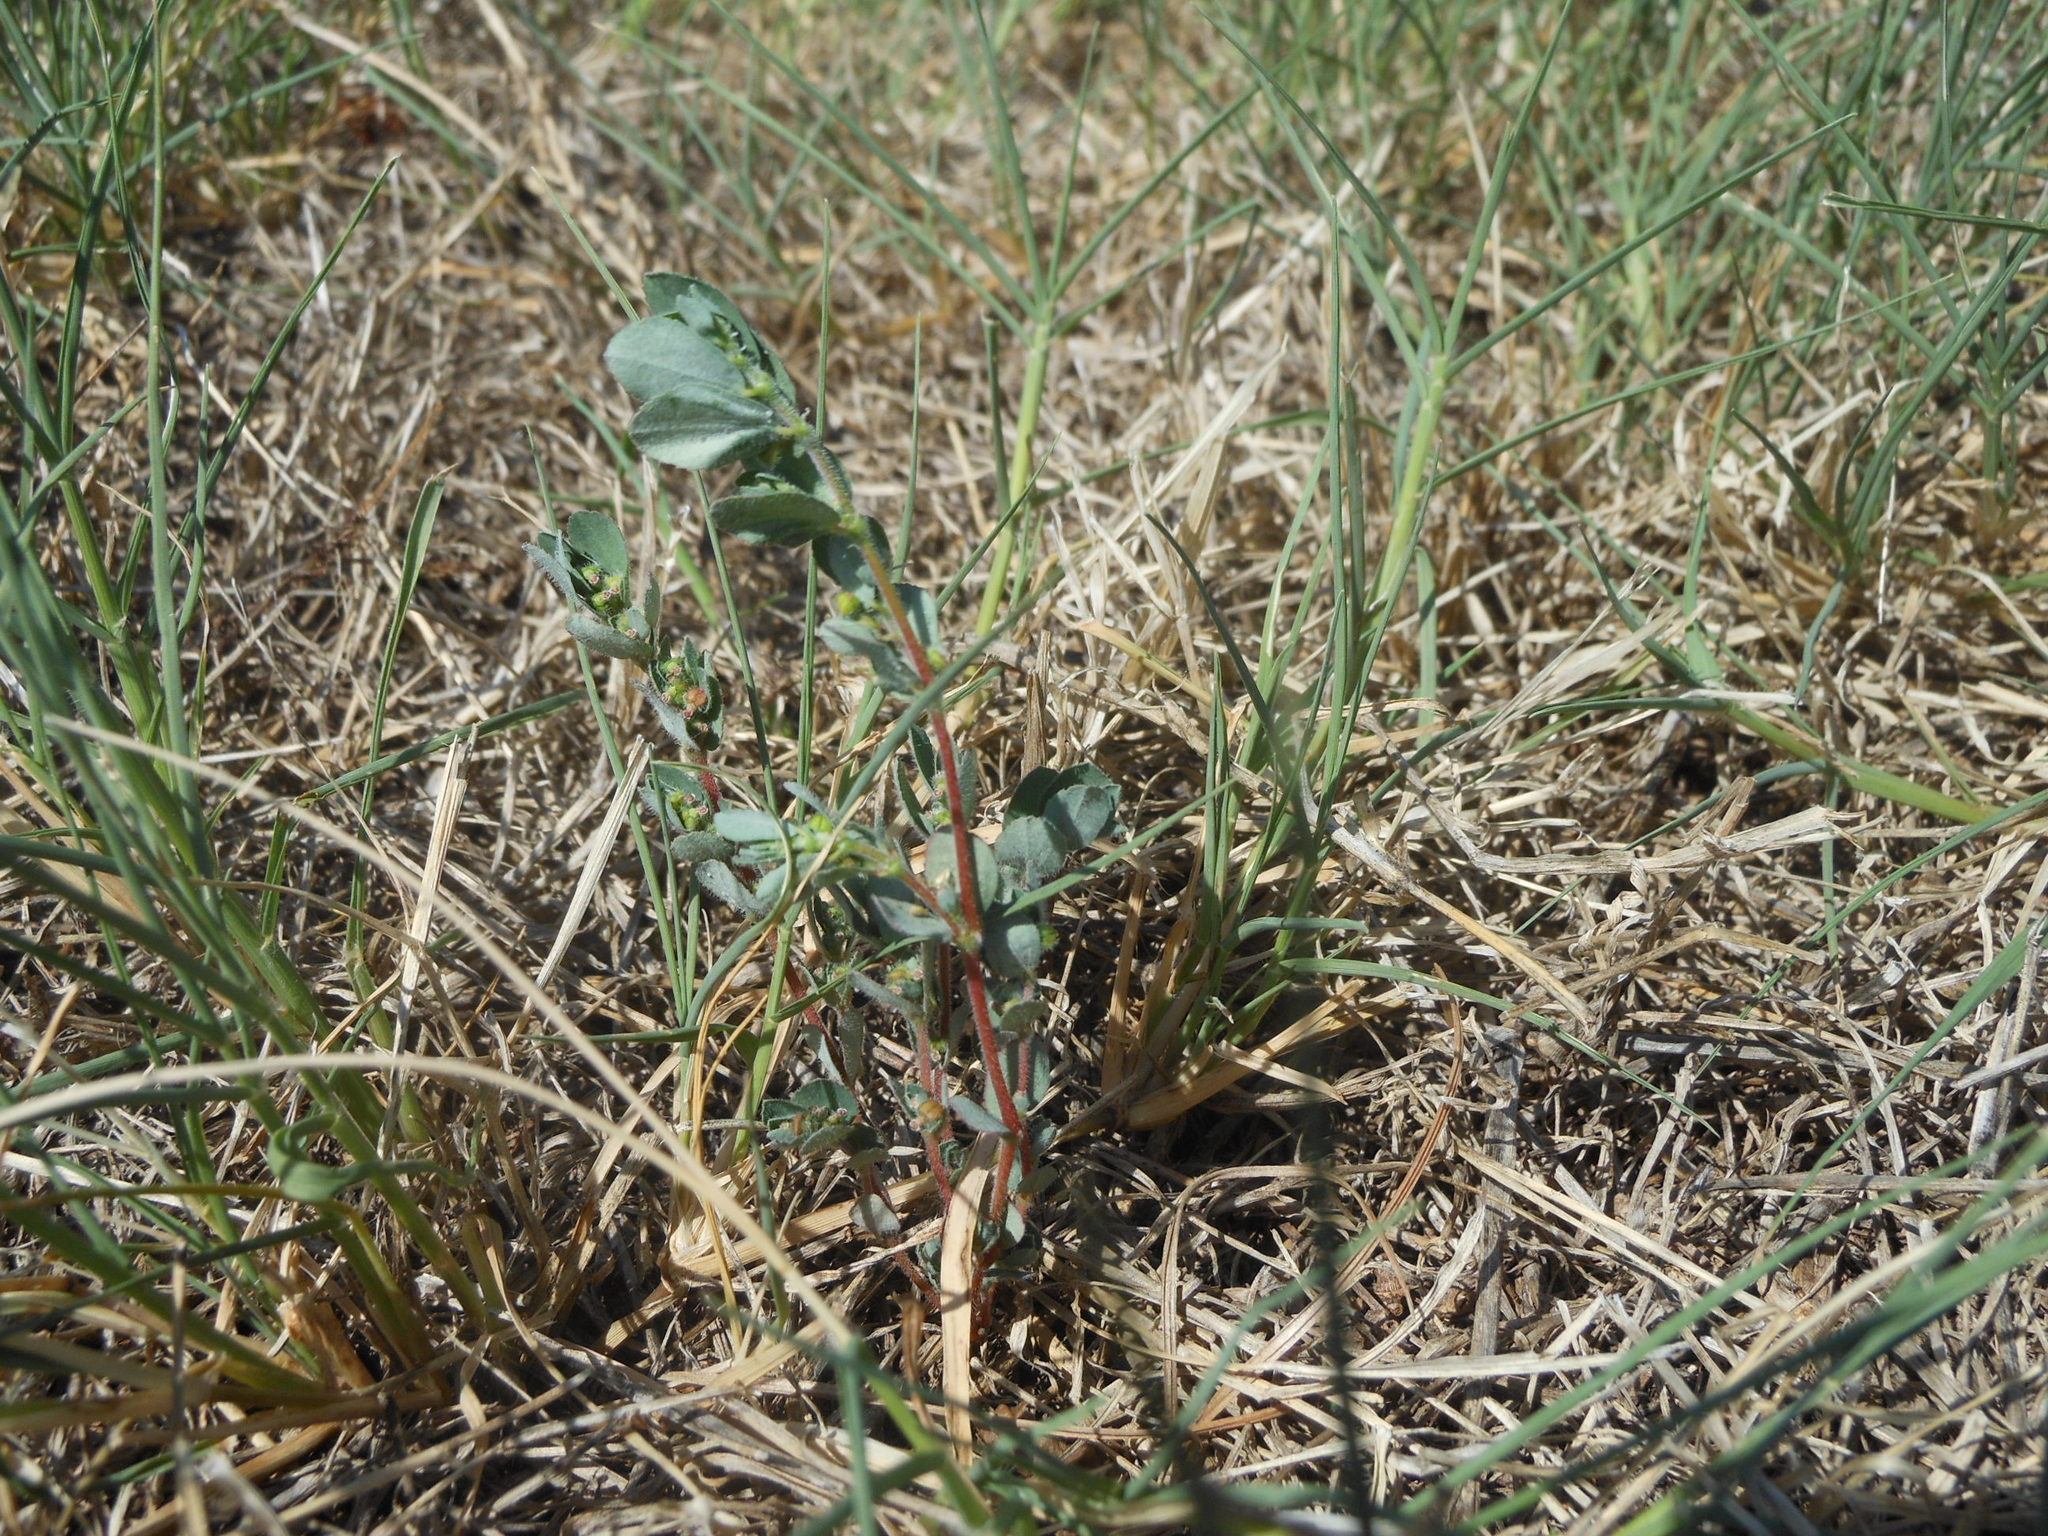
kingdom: Plantae
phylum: Tracheophyta
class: Magnoliopsida
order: Malpighiales
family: Euphorbiaceae
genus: Euphorbia
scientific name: Euphorbia prostrata
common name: Prostrate sandmat
